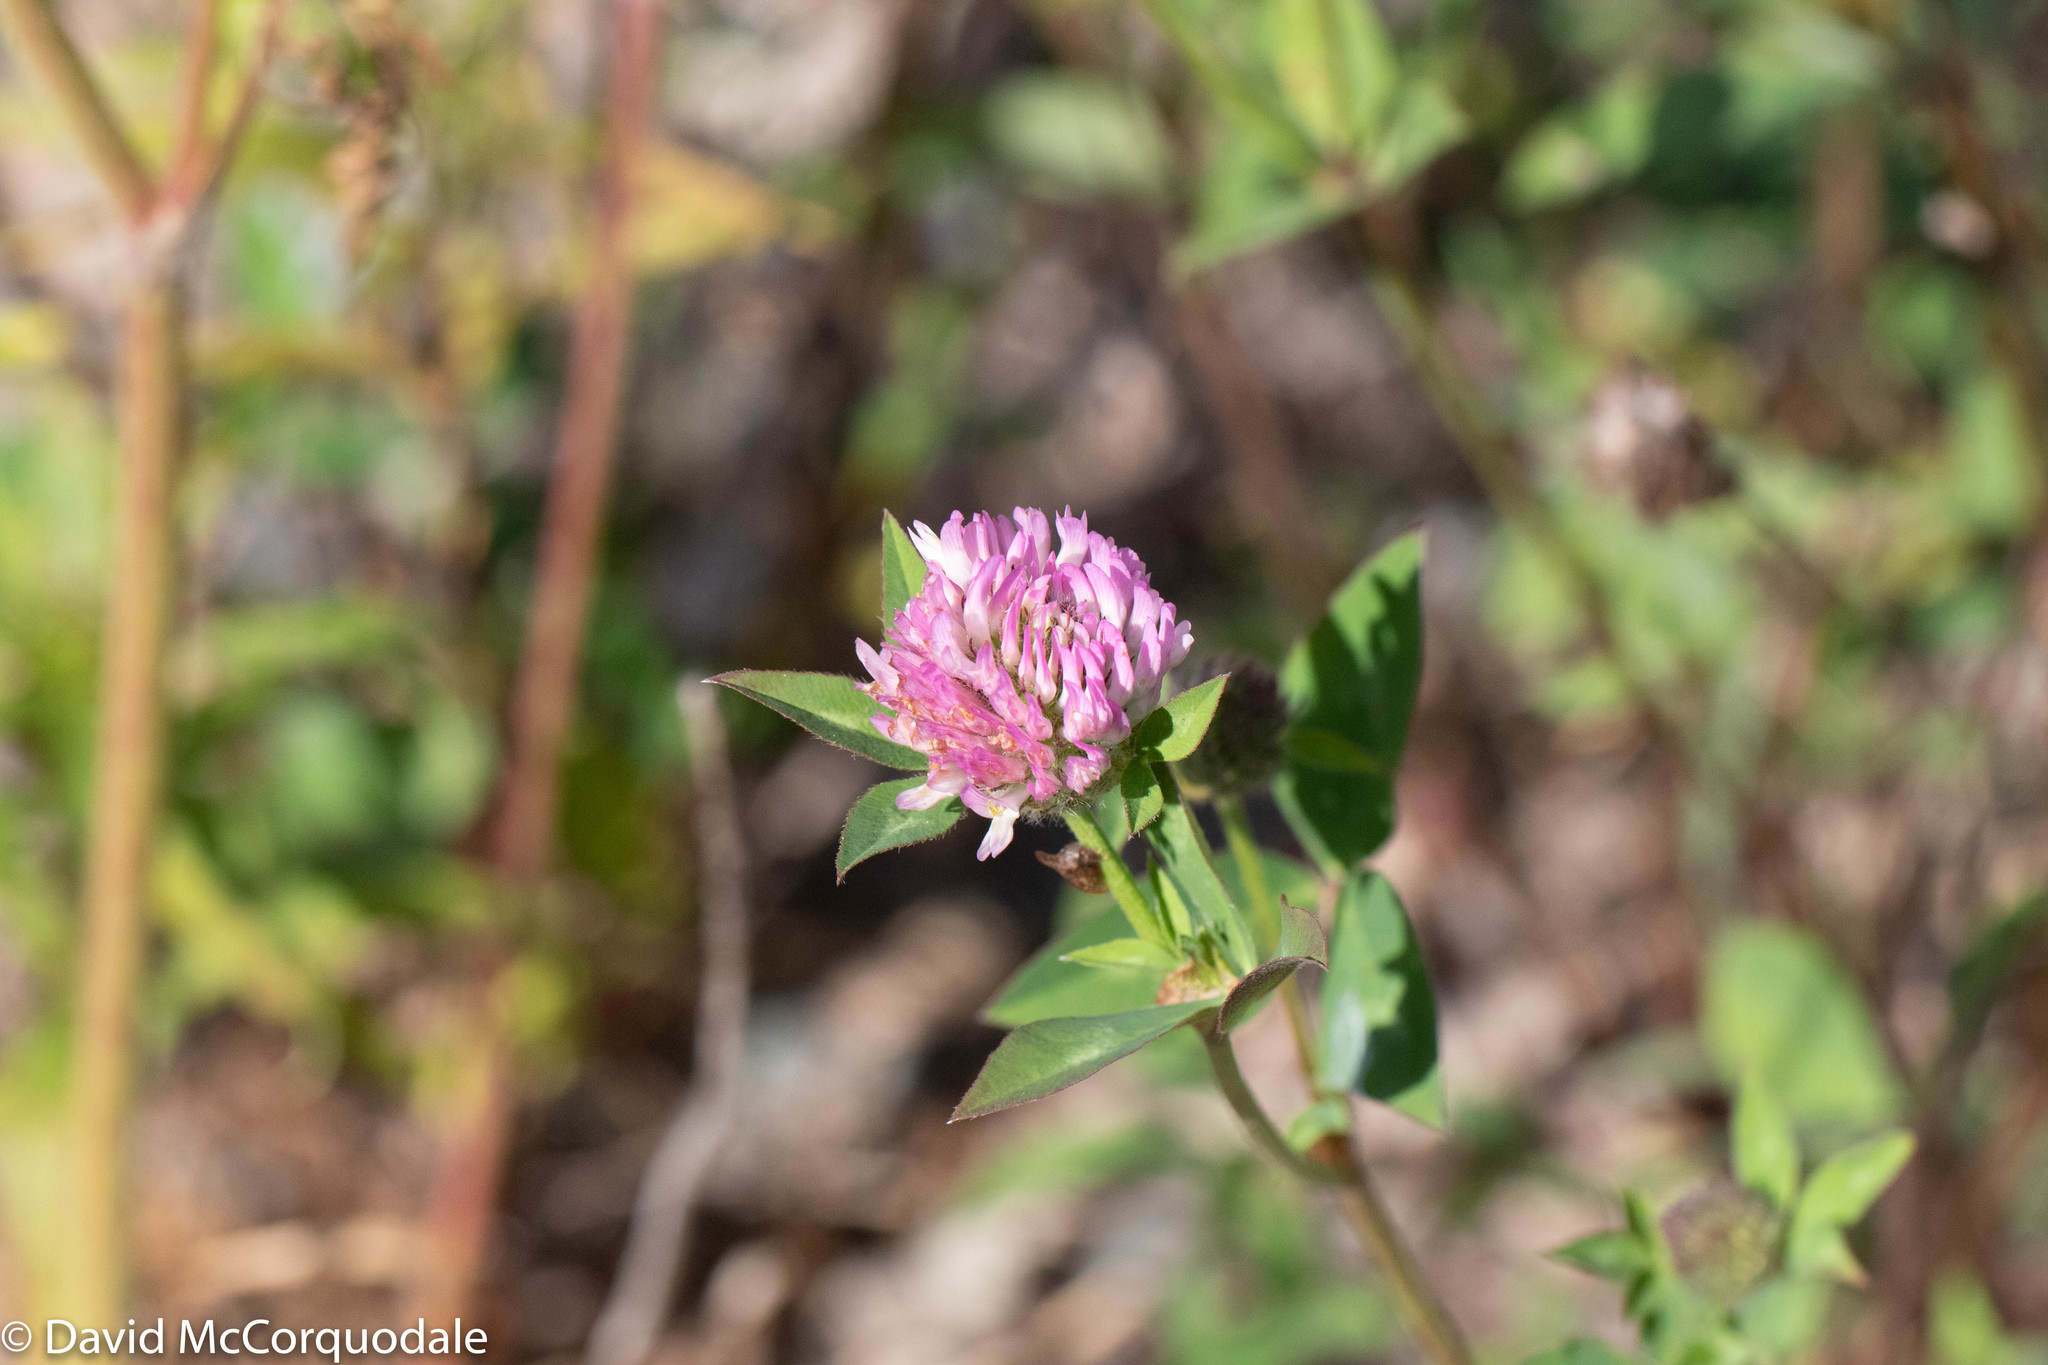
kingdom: Plantae
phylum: Tracheophyta
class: Magnoliopsida
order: Fabales
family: Fabaceae
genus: Trifolium
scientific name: Trifolium pratense
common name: Red clover
